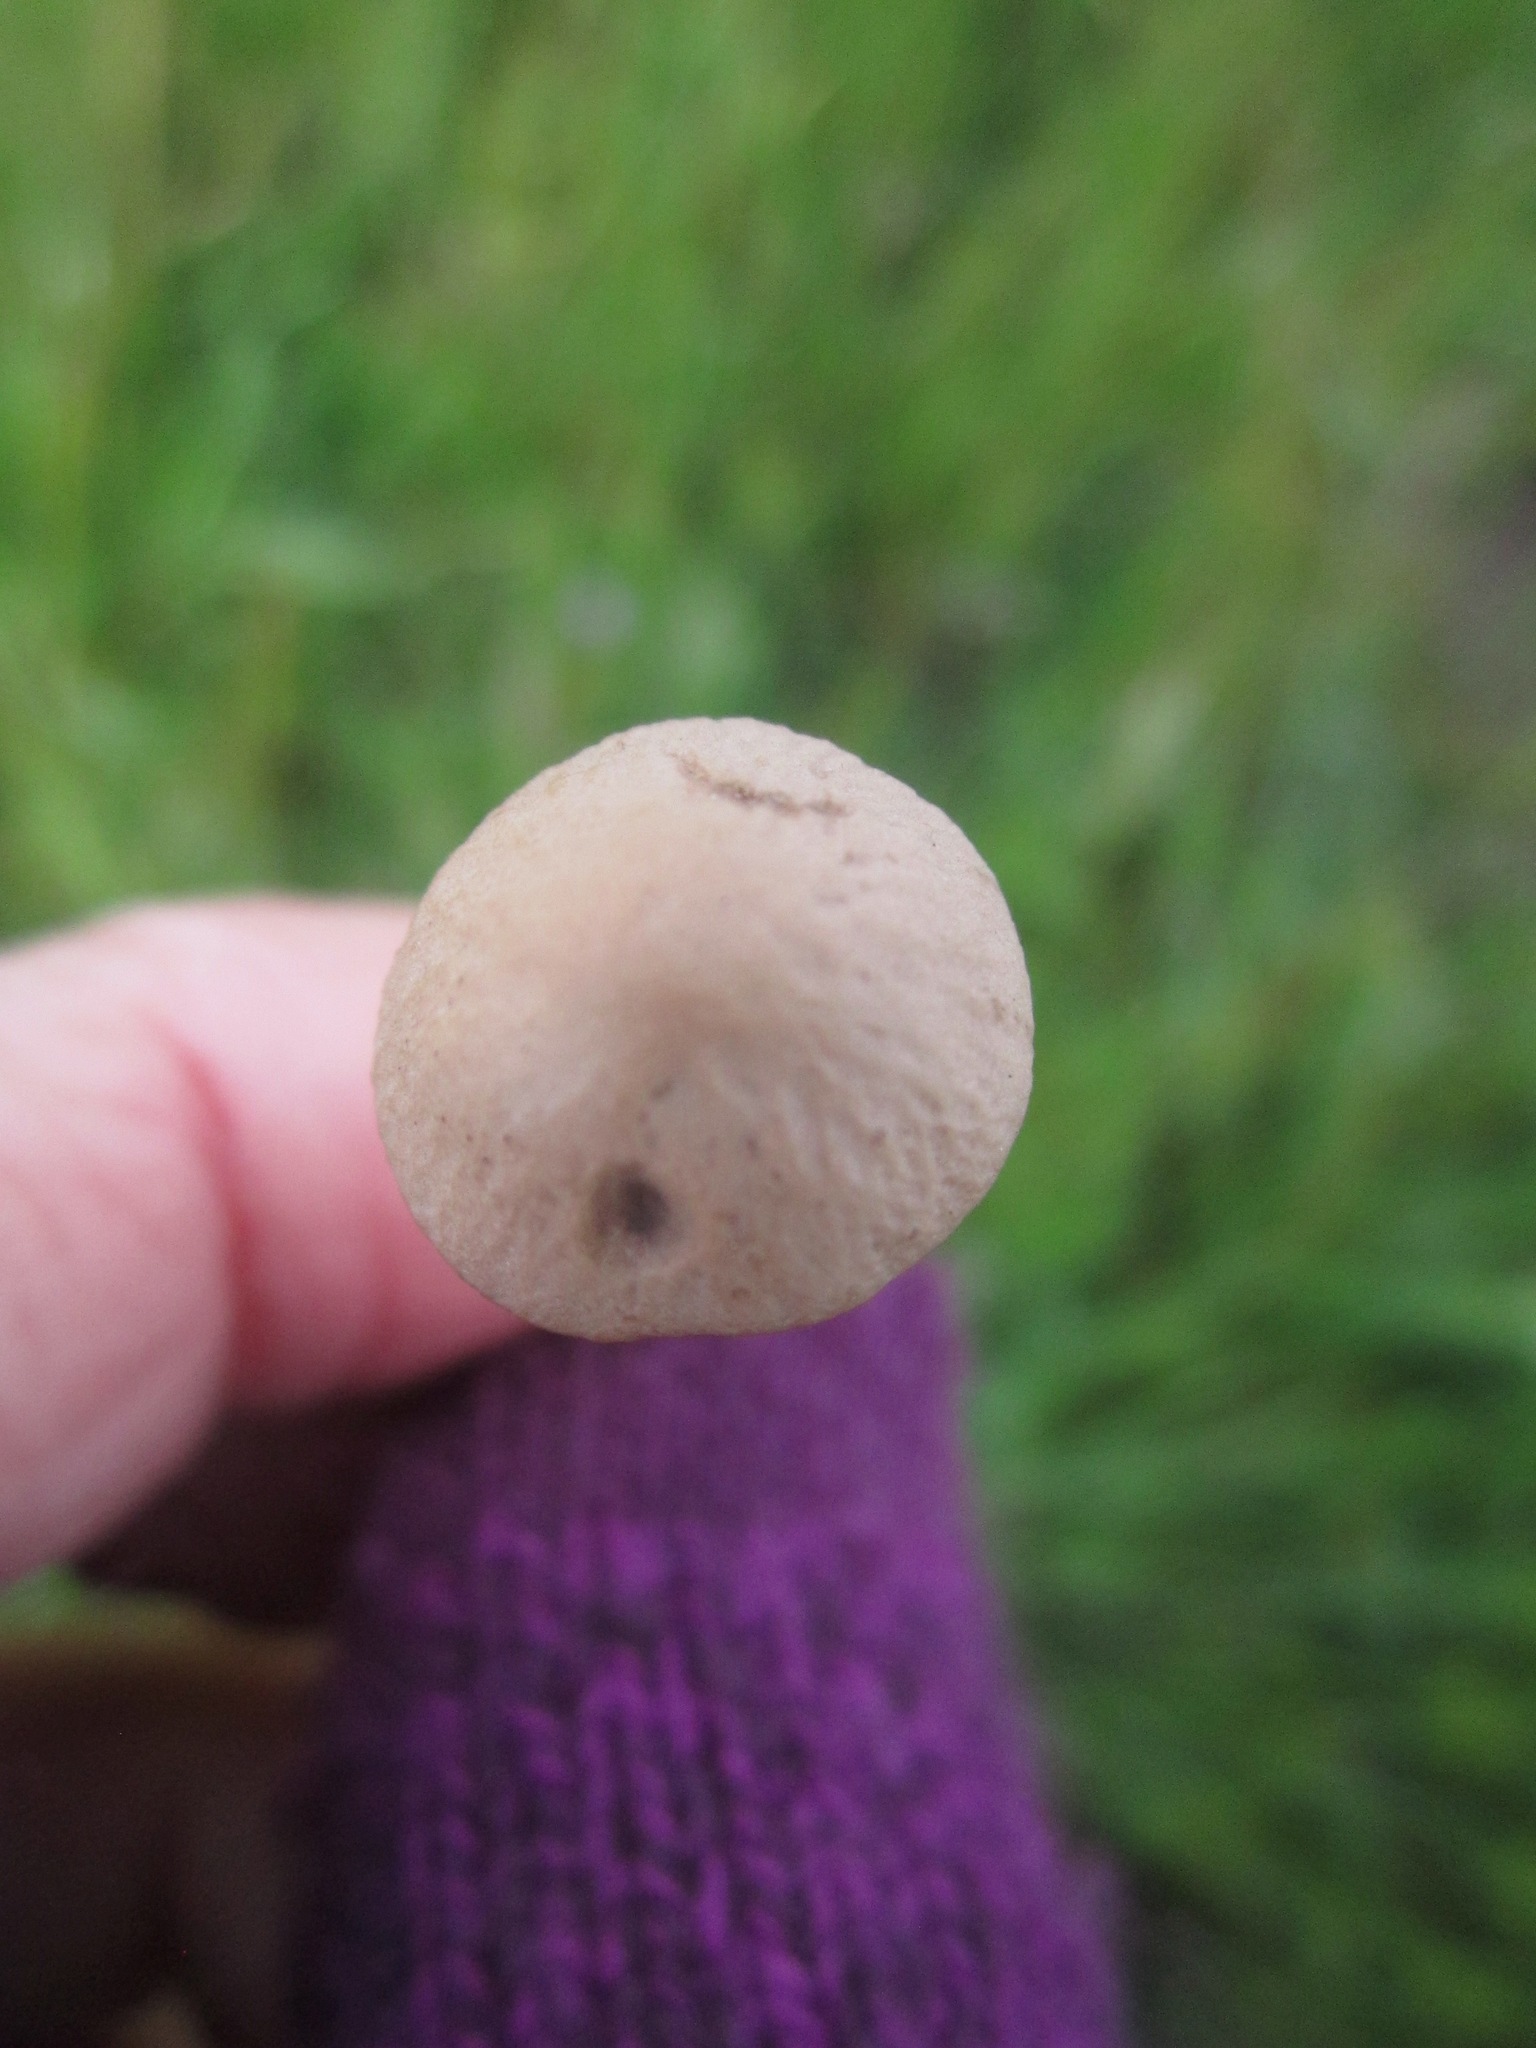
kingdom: Fungi
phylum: Basidiomycota
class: Agaricomycetes
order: Agaricales
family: Bolbitiaceae
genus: Panaeolina
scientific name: Panaeolina foenisecii
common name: Brown hay cap
